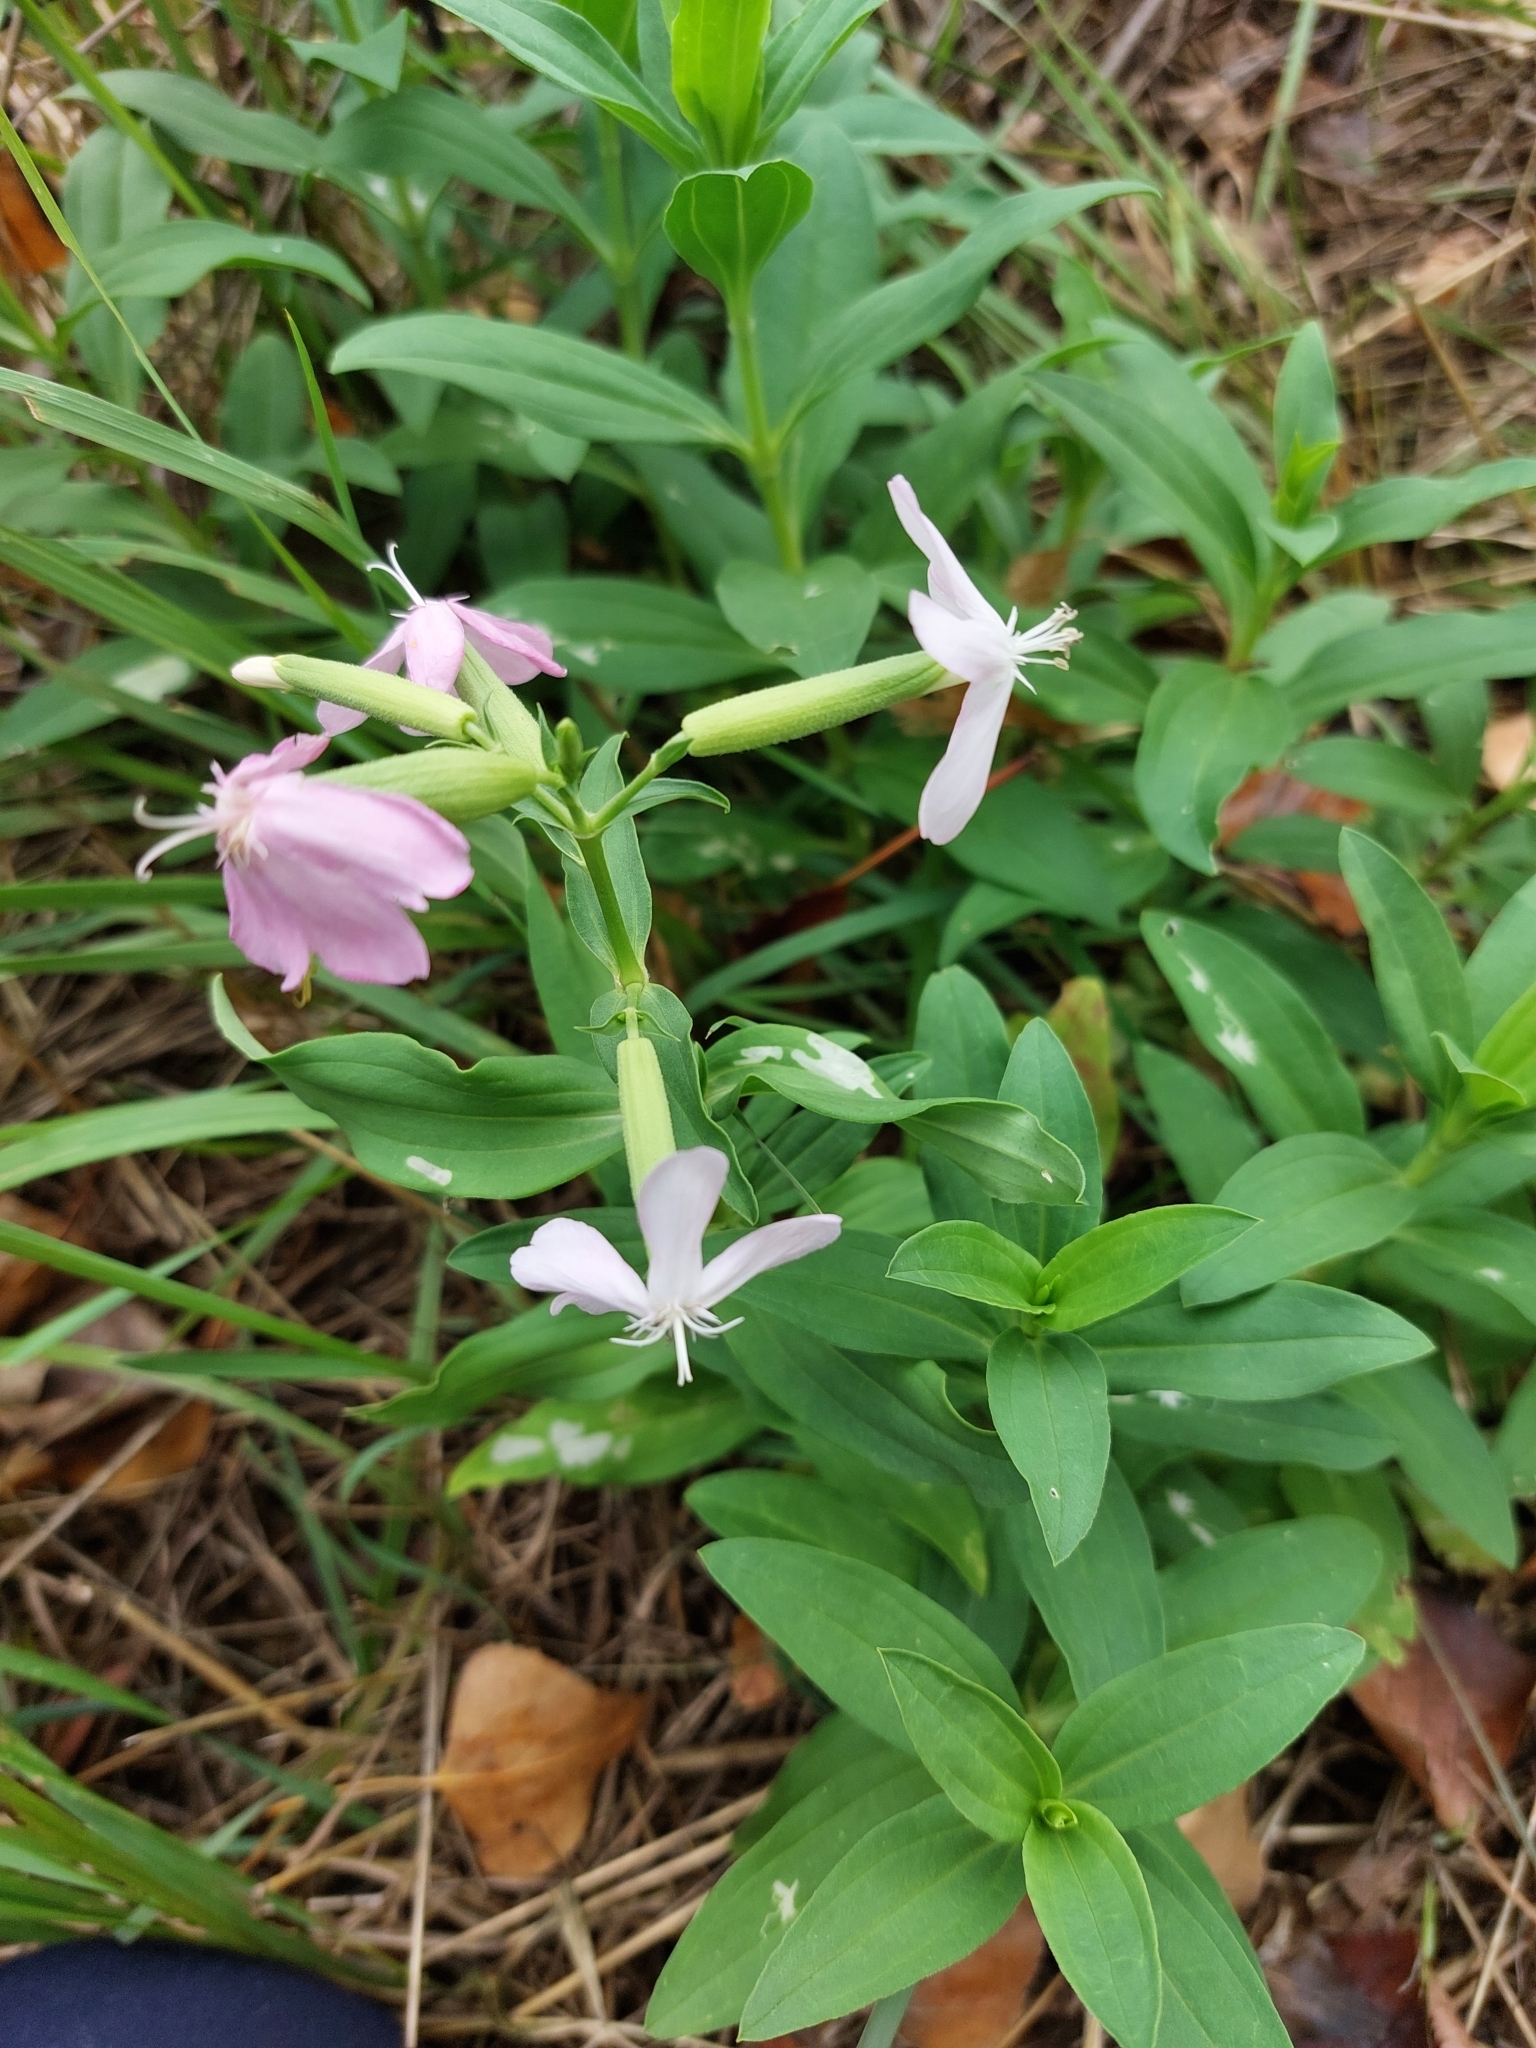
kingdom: Plantae
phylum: Tracheophyta
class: Magnoliopsida
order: Caryophyllales
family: Caryophyllaceae
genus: Saponaria
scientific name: Saponaria officinalis
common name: Soapwort
